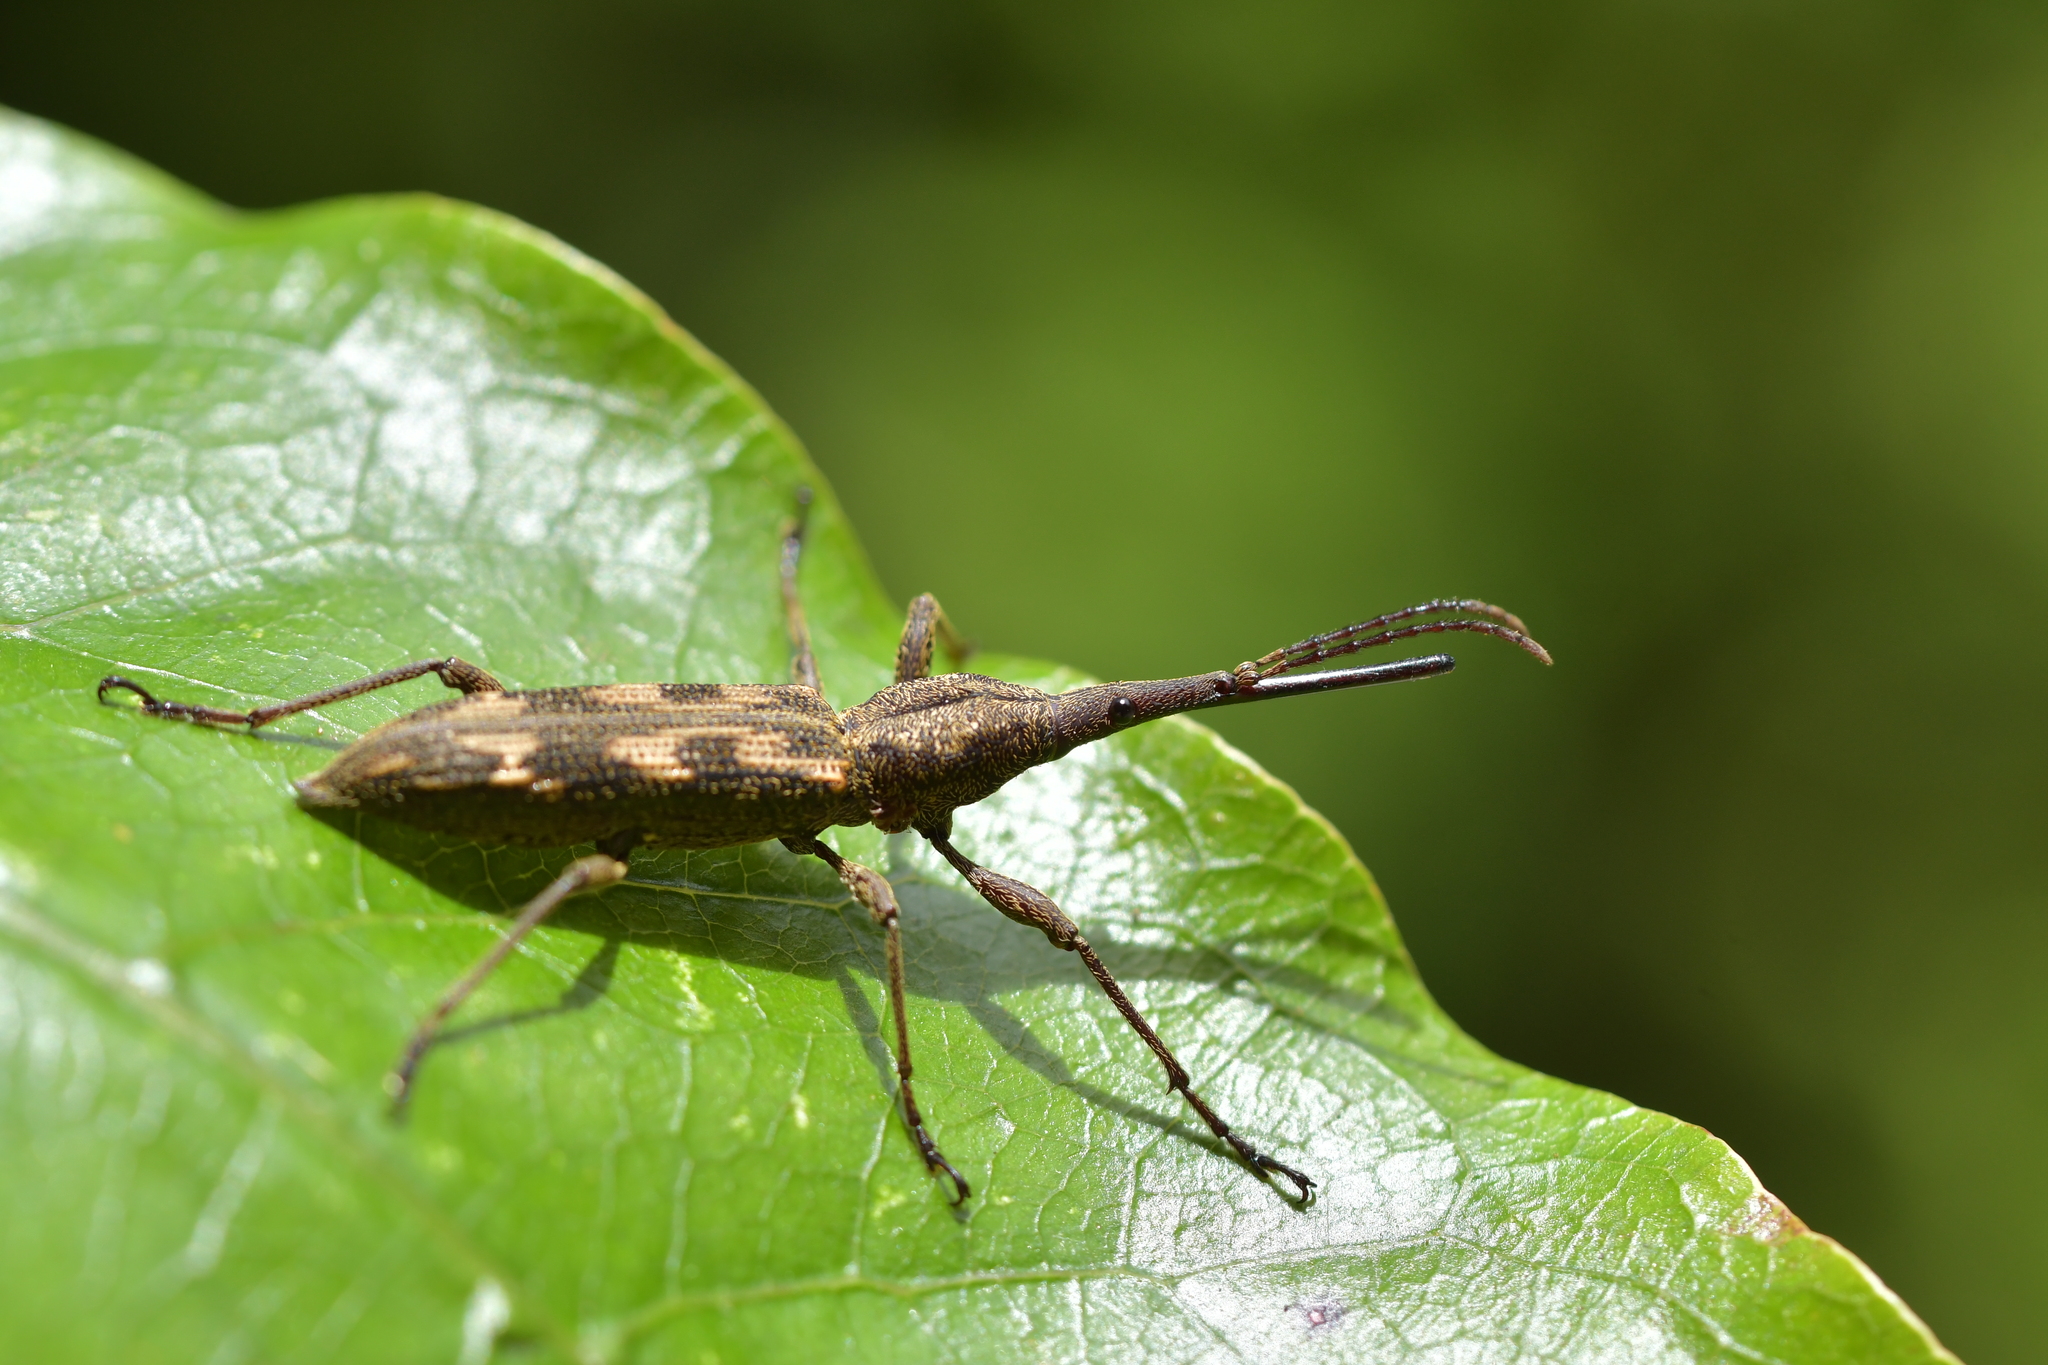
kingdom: Animalia
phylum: Arthropoda
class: Insecta
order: Coleoptera
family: Brentidae
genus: Lasiorhynchus
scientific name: Lasiorhynchus barbicornis
